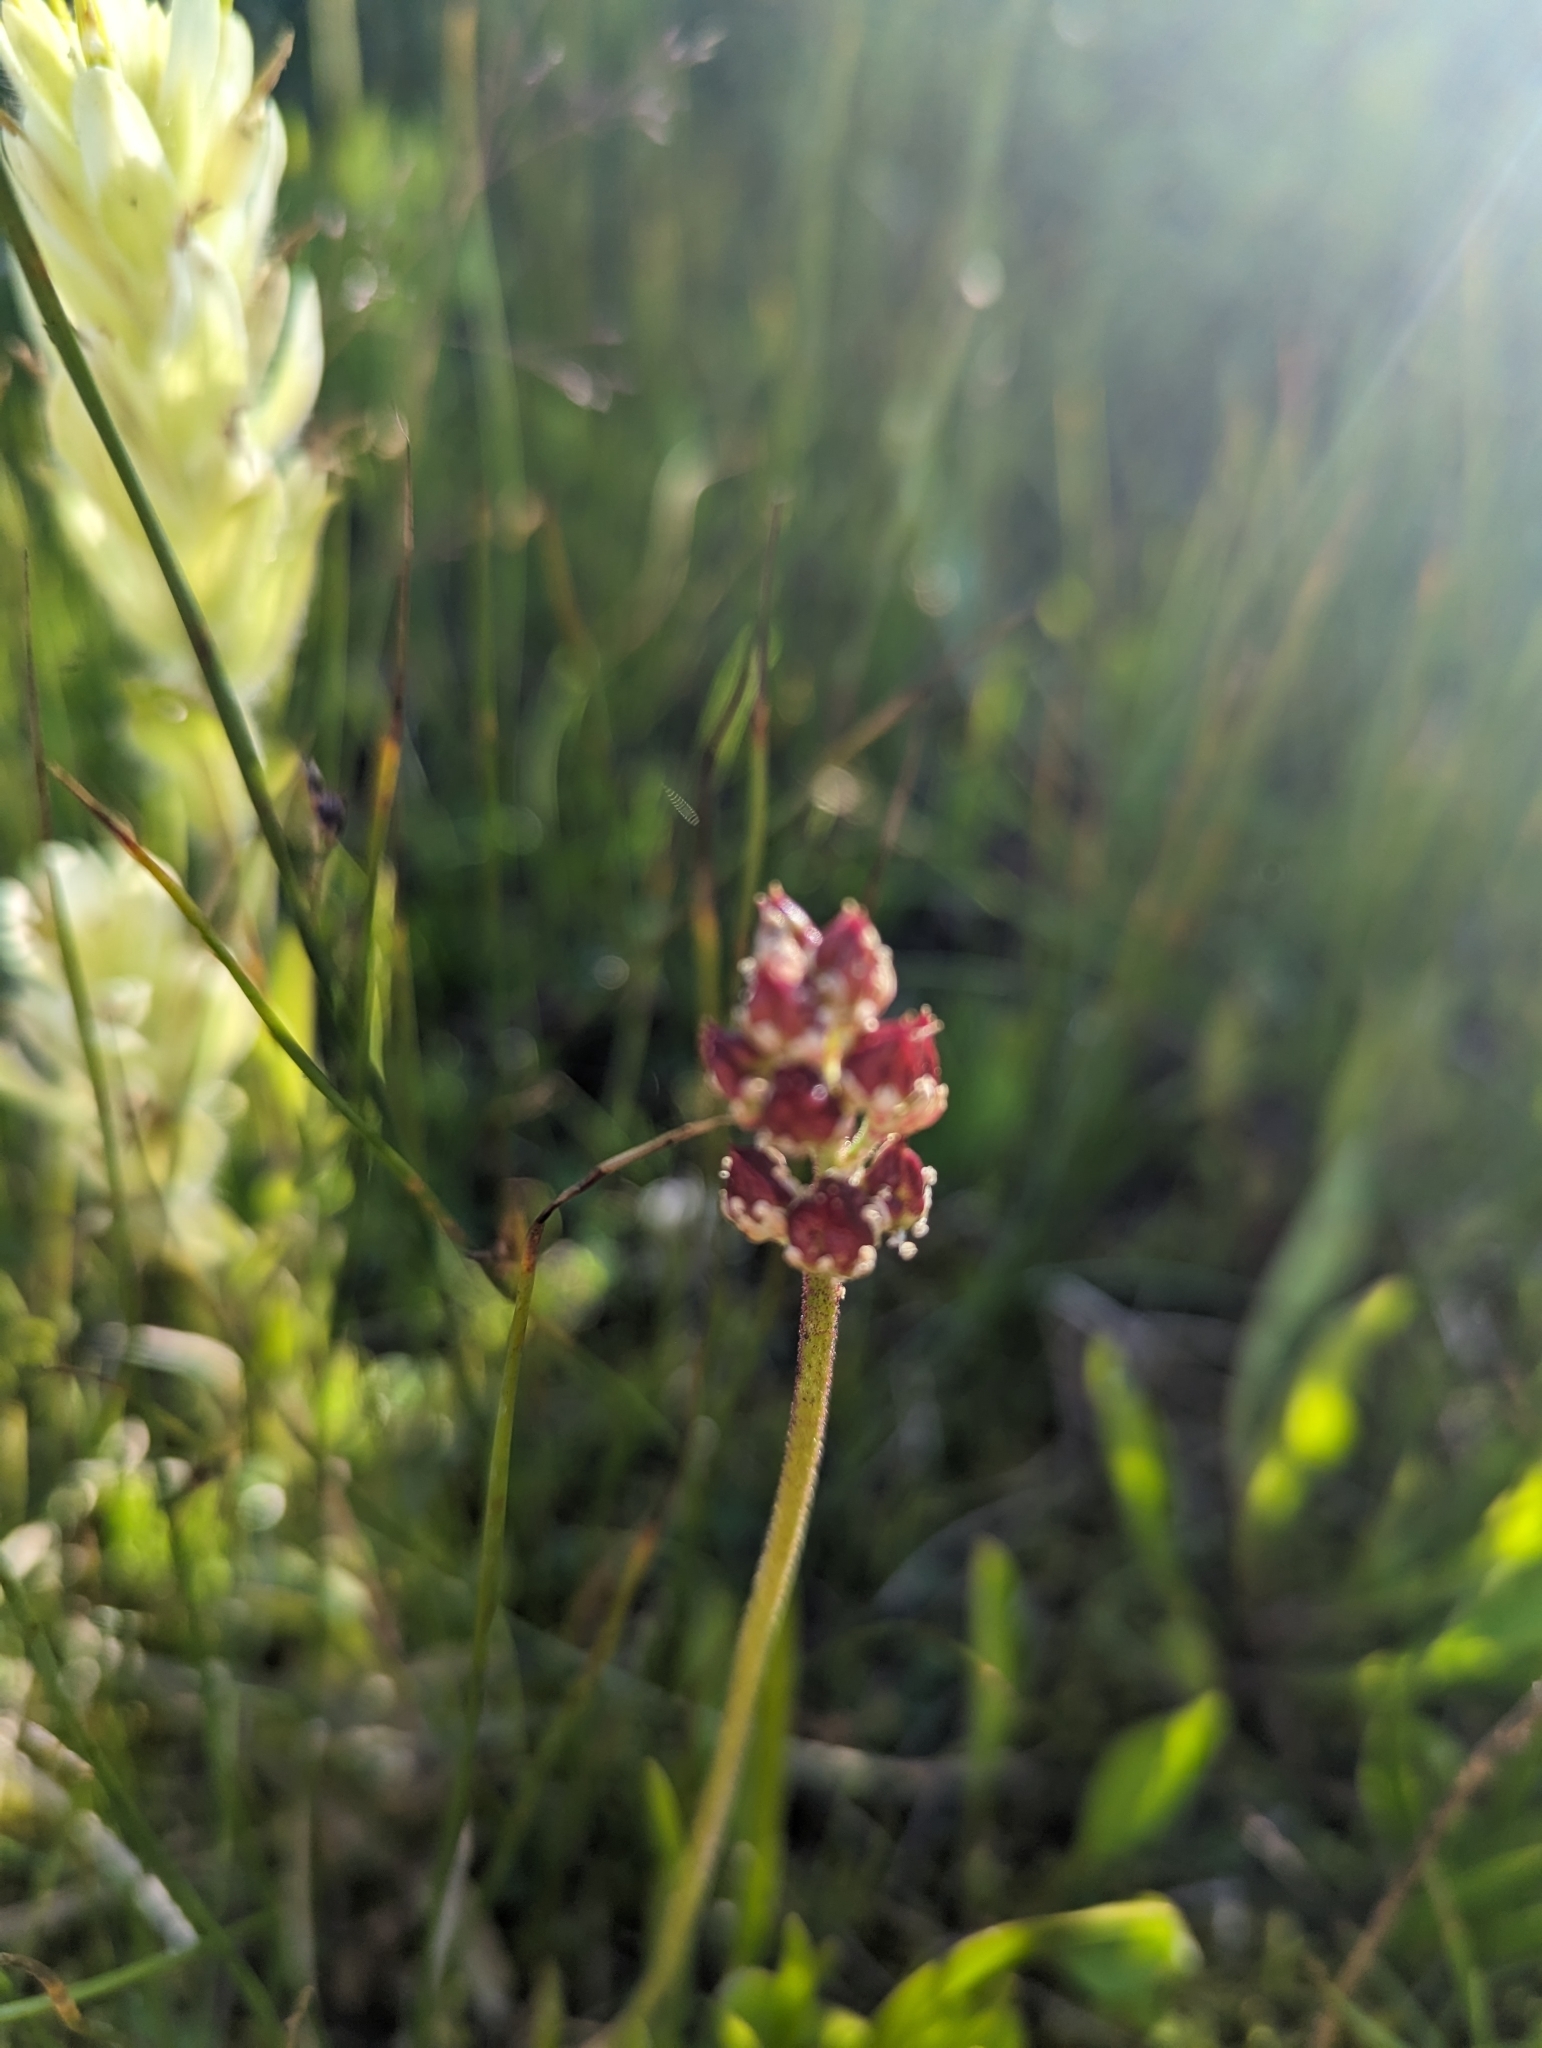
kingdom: Plantae
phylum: Tracheophyta
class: Liliopsida
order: Alismatales
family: Tofieldiaceae
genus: Triantha
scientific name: Triantha glutinosa
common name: Glutinous tofieldia
